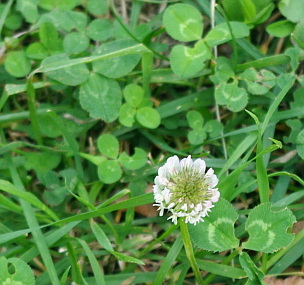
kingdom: Plantae
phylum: Tracheophyta
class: Magnoliopsida
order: Fabales
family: Fabaceae
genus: Trifolium
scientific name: Trifolium repens
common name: White clover
